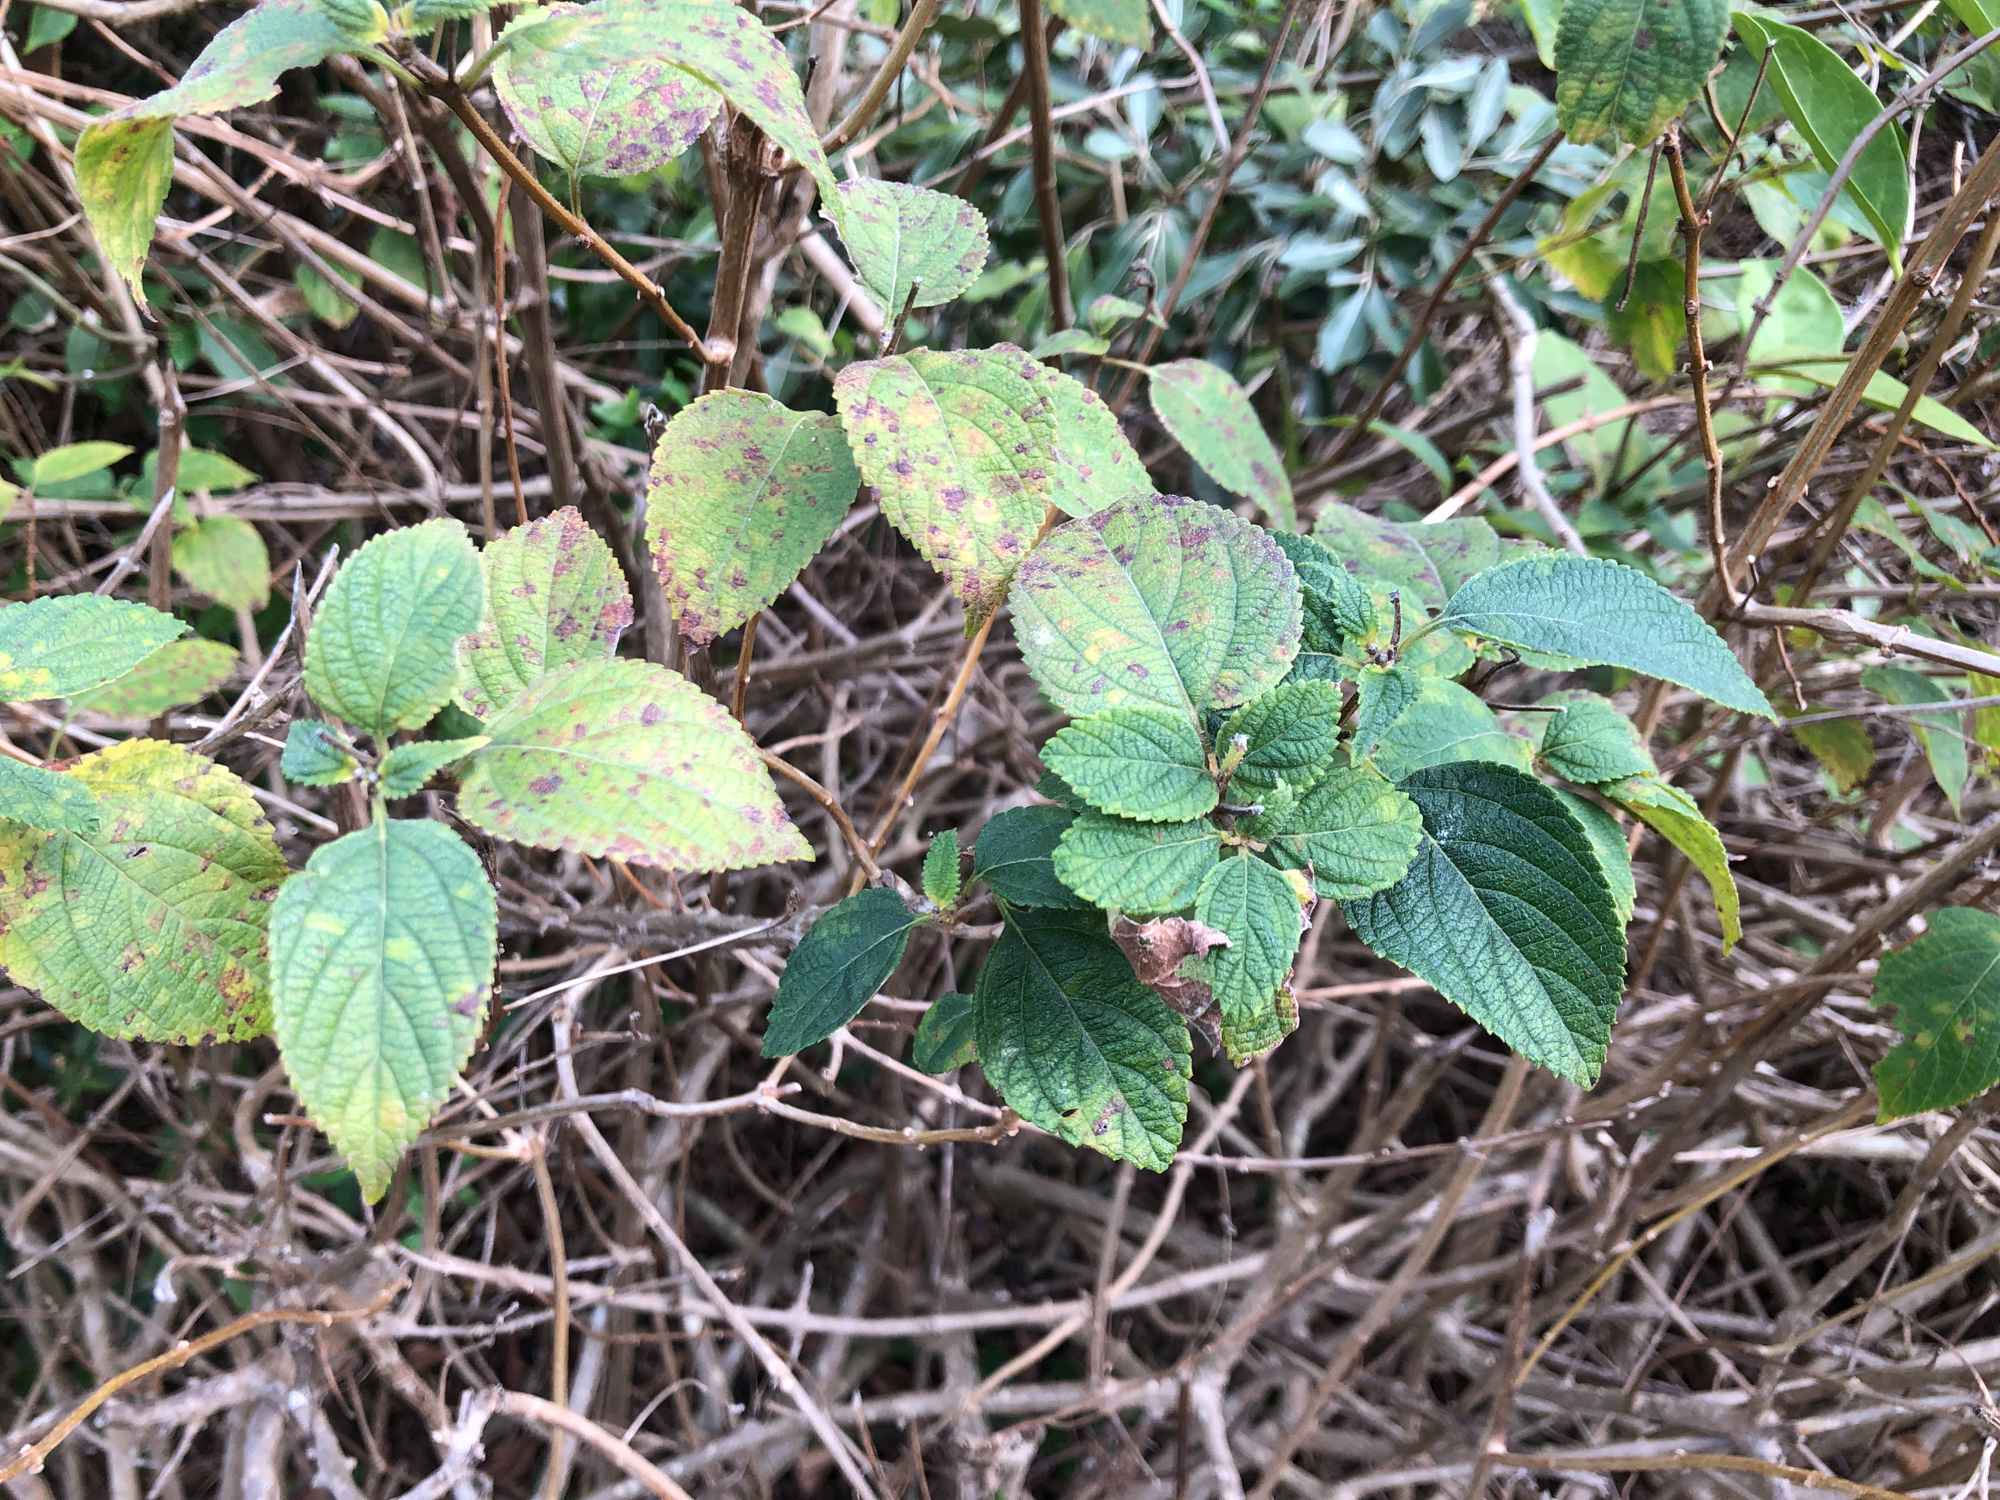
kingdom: Plantae
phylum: Tracheophyta
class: Magnoliopsida
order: Lamiales
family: Verbenaceae
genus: Lantana
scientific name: Lantana camara
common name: Lantana
